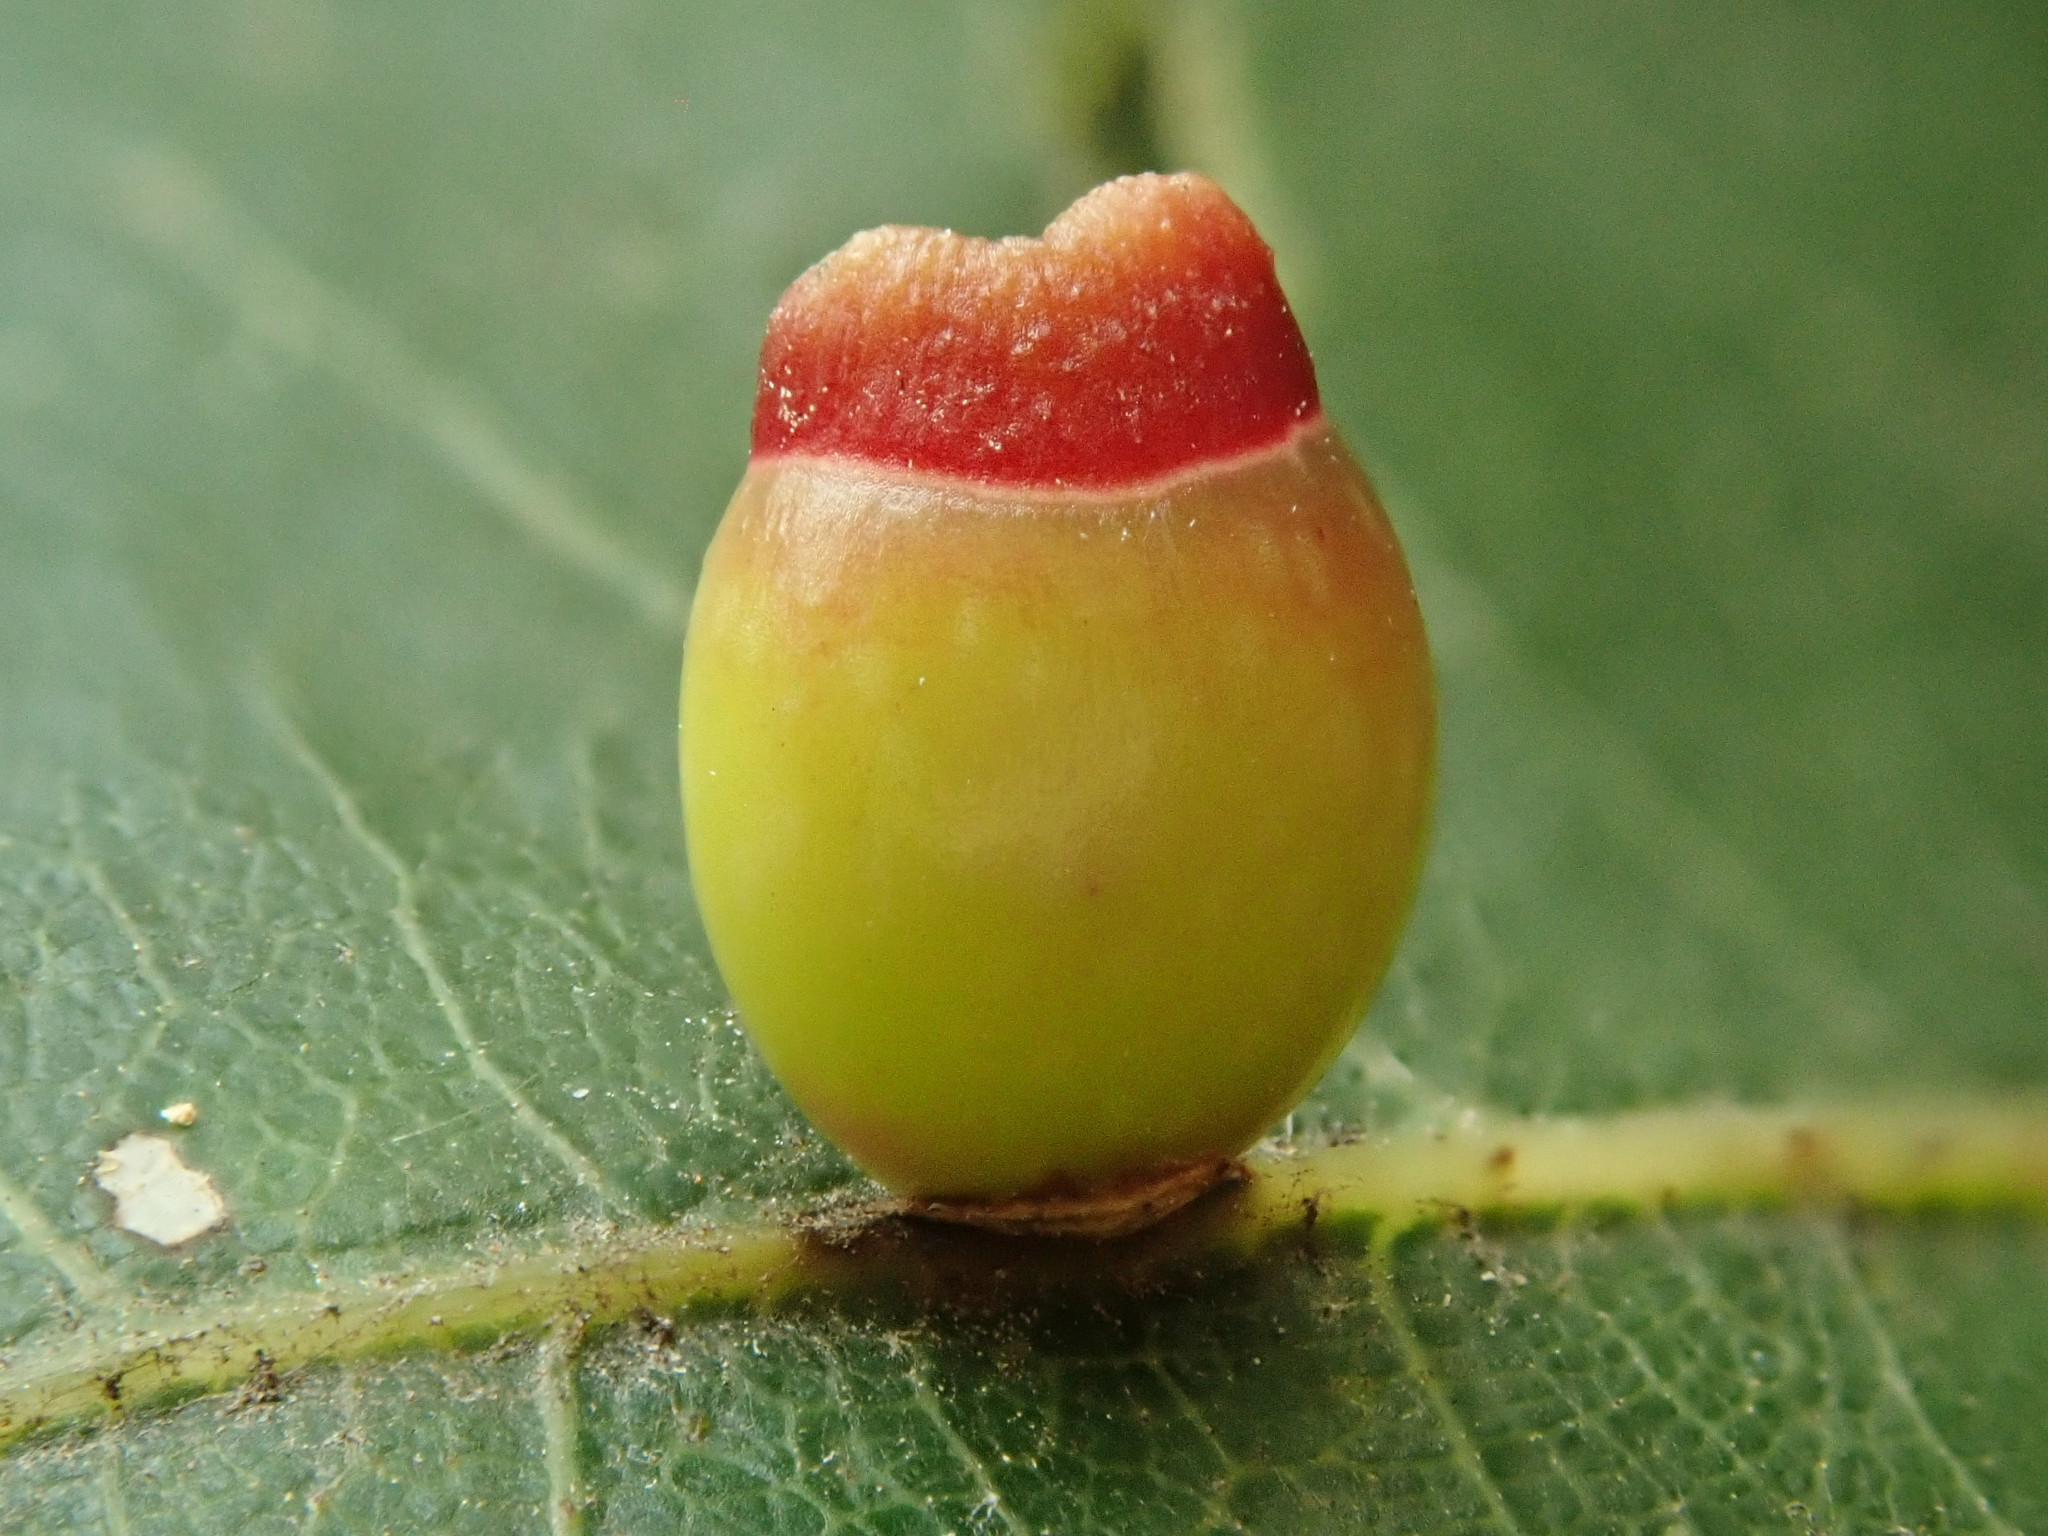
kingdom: Animalia
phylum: Arthropoda
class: Insecta
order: Hymenoptera
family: Cynipidae
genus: Kokkocynips
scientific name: Kokkocynips rileyi
